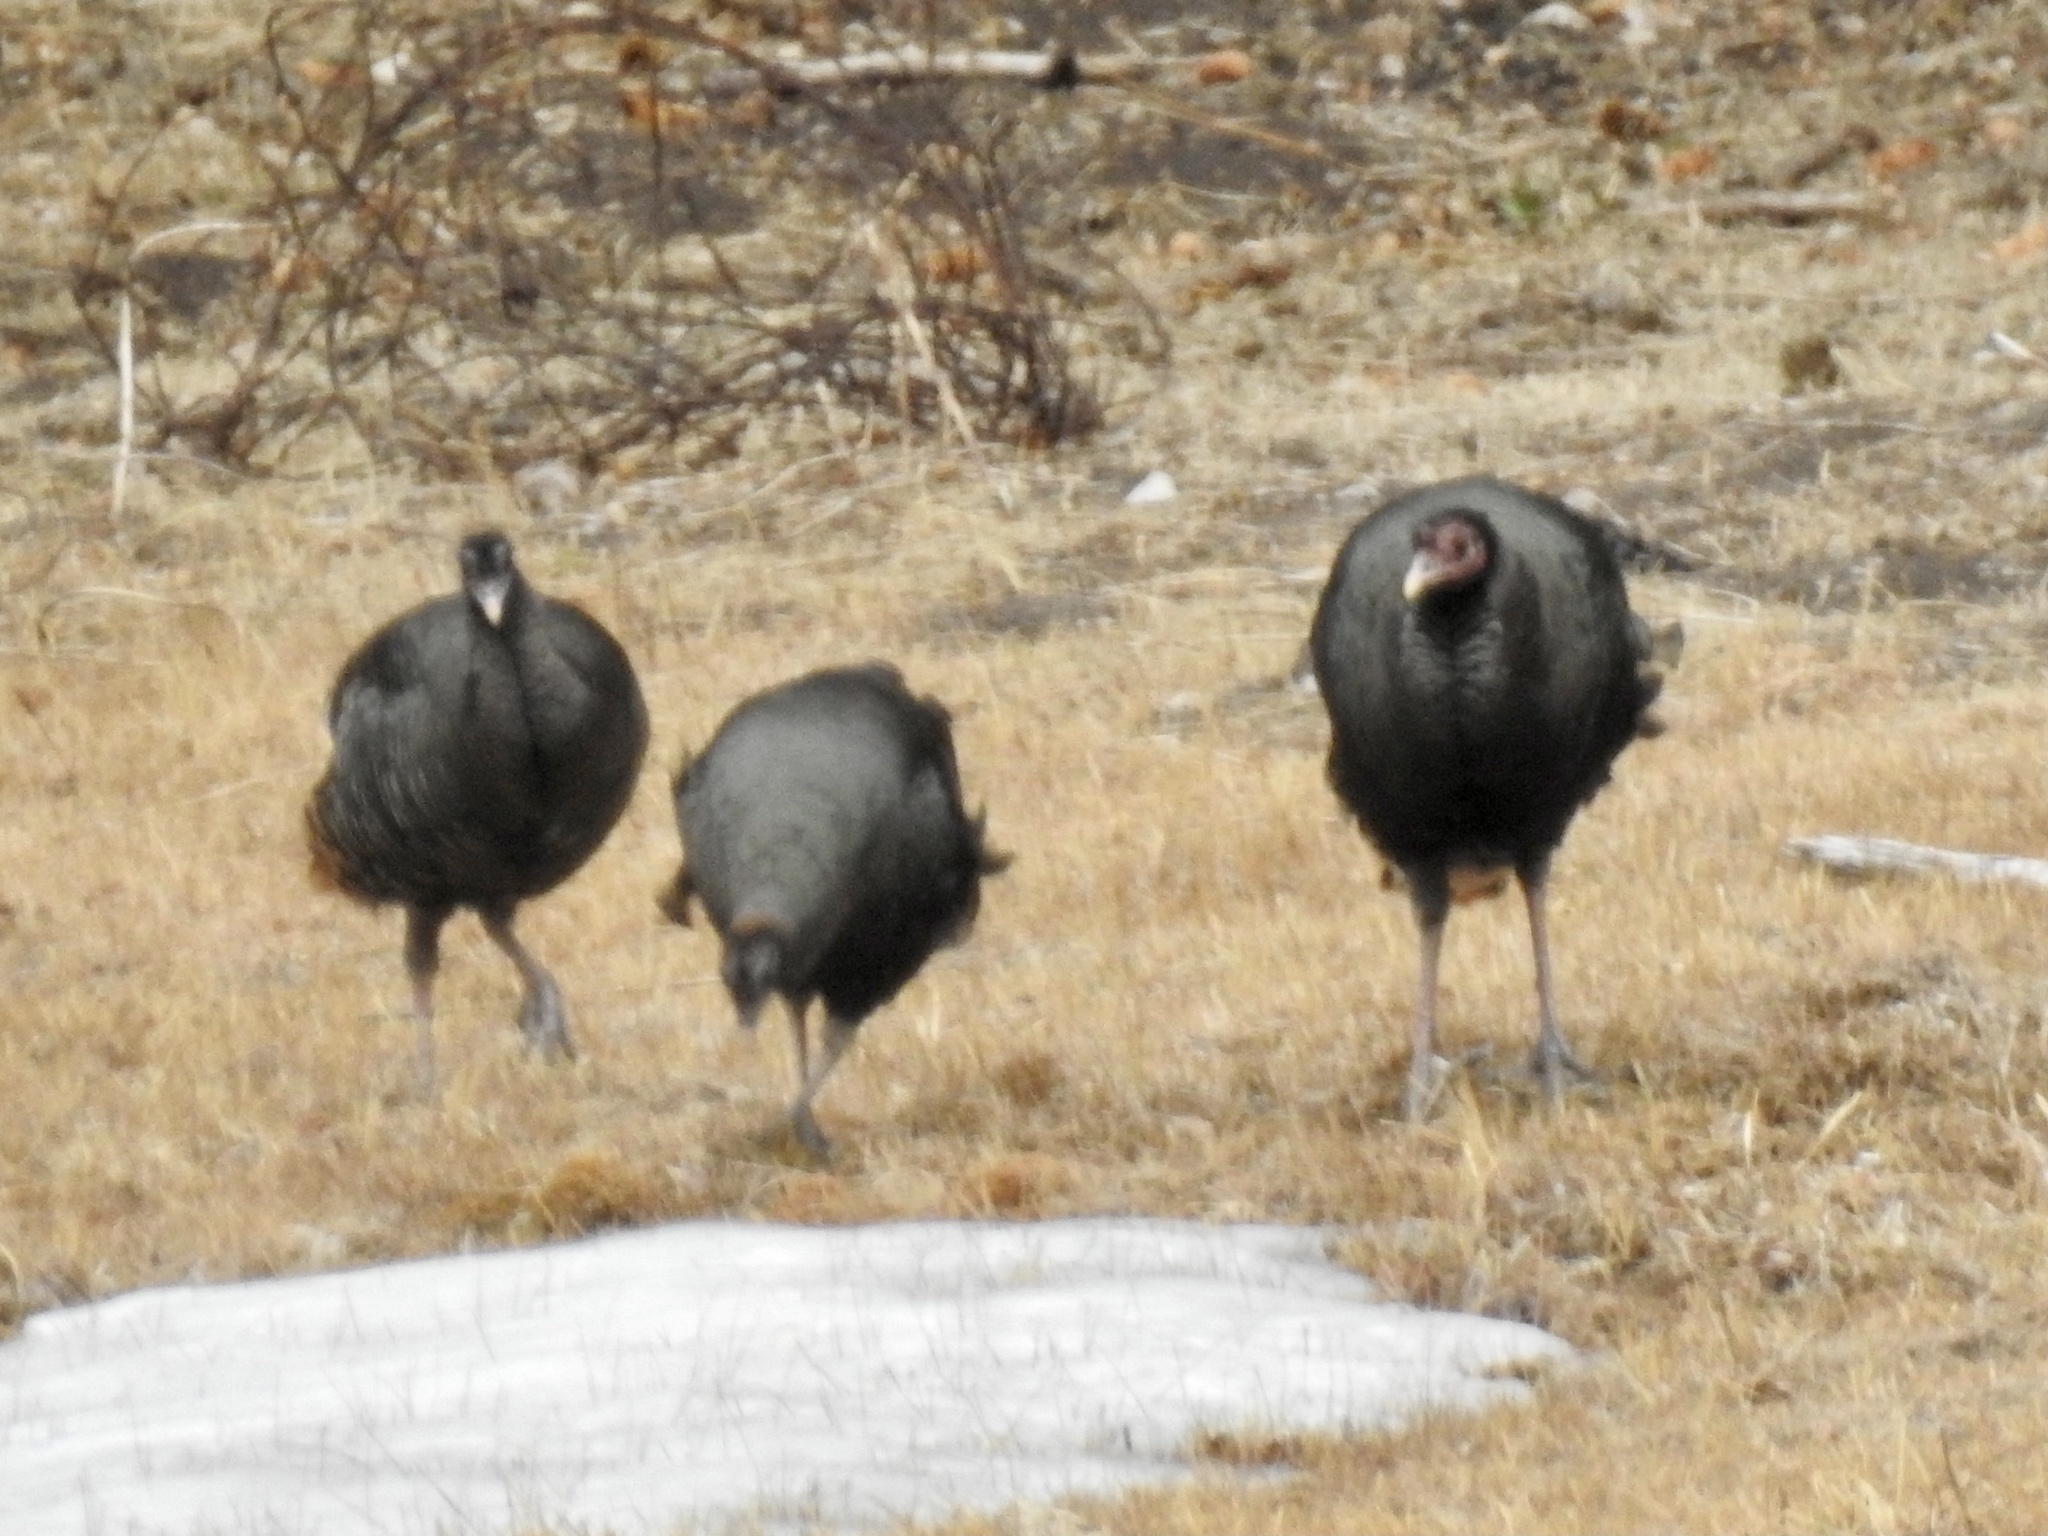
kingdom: Animalia
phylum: Chordata
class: Aves
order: Galliformes
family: Phasianidae
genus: Meleagris
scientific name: Meleagris gallopavo
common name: Wild turkey
